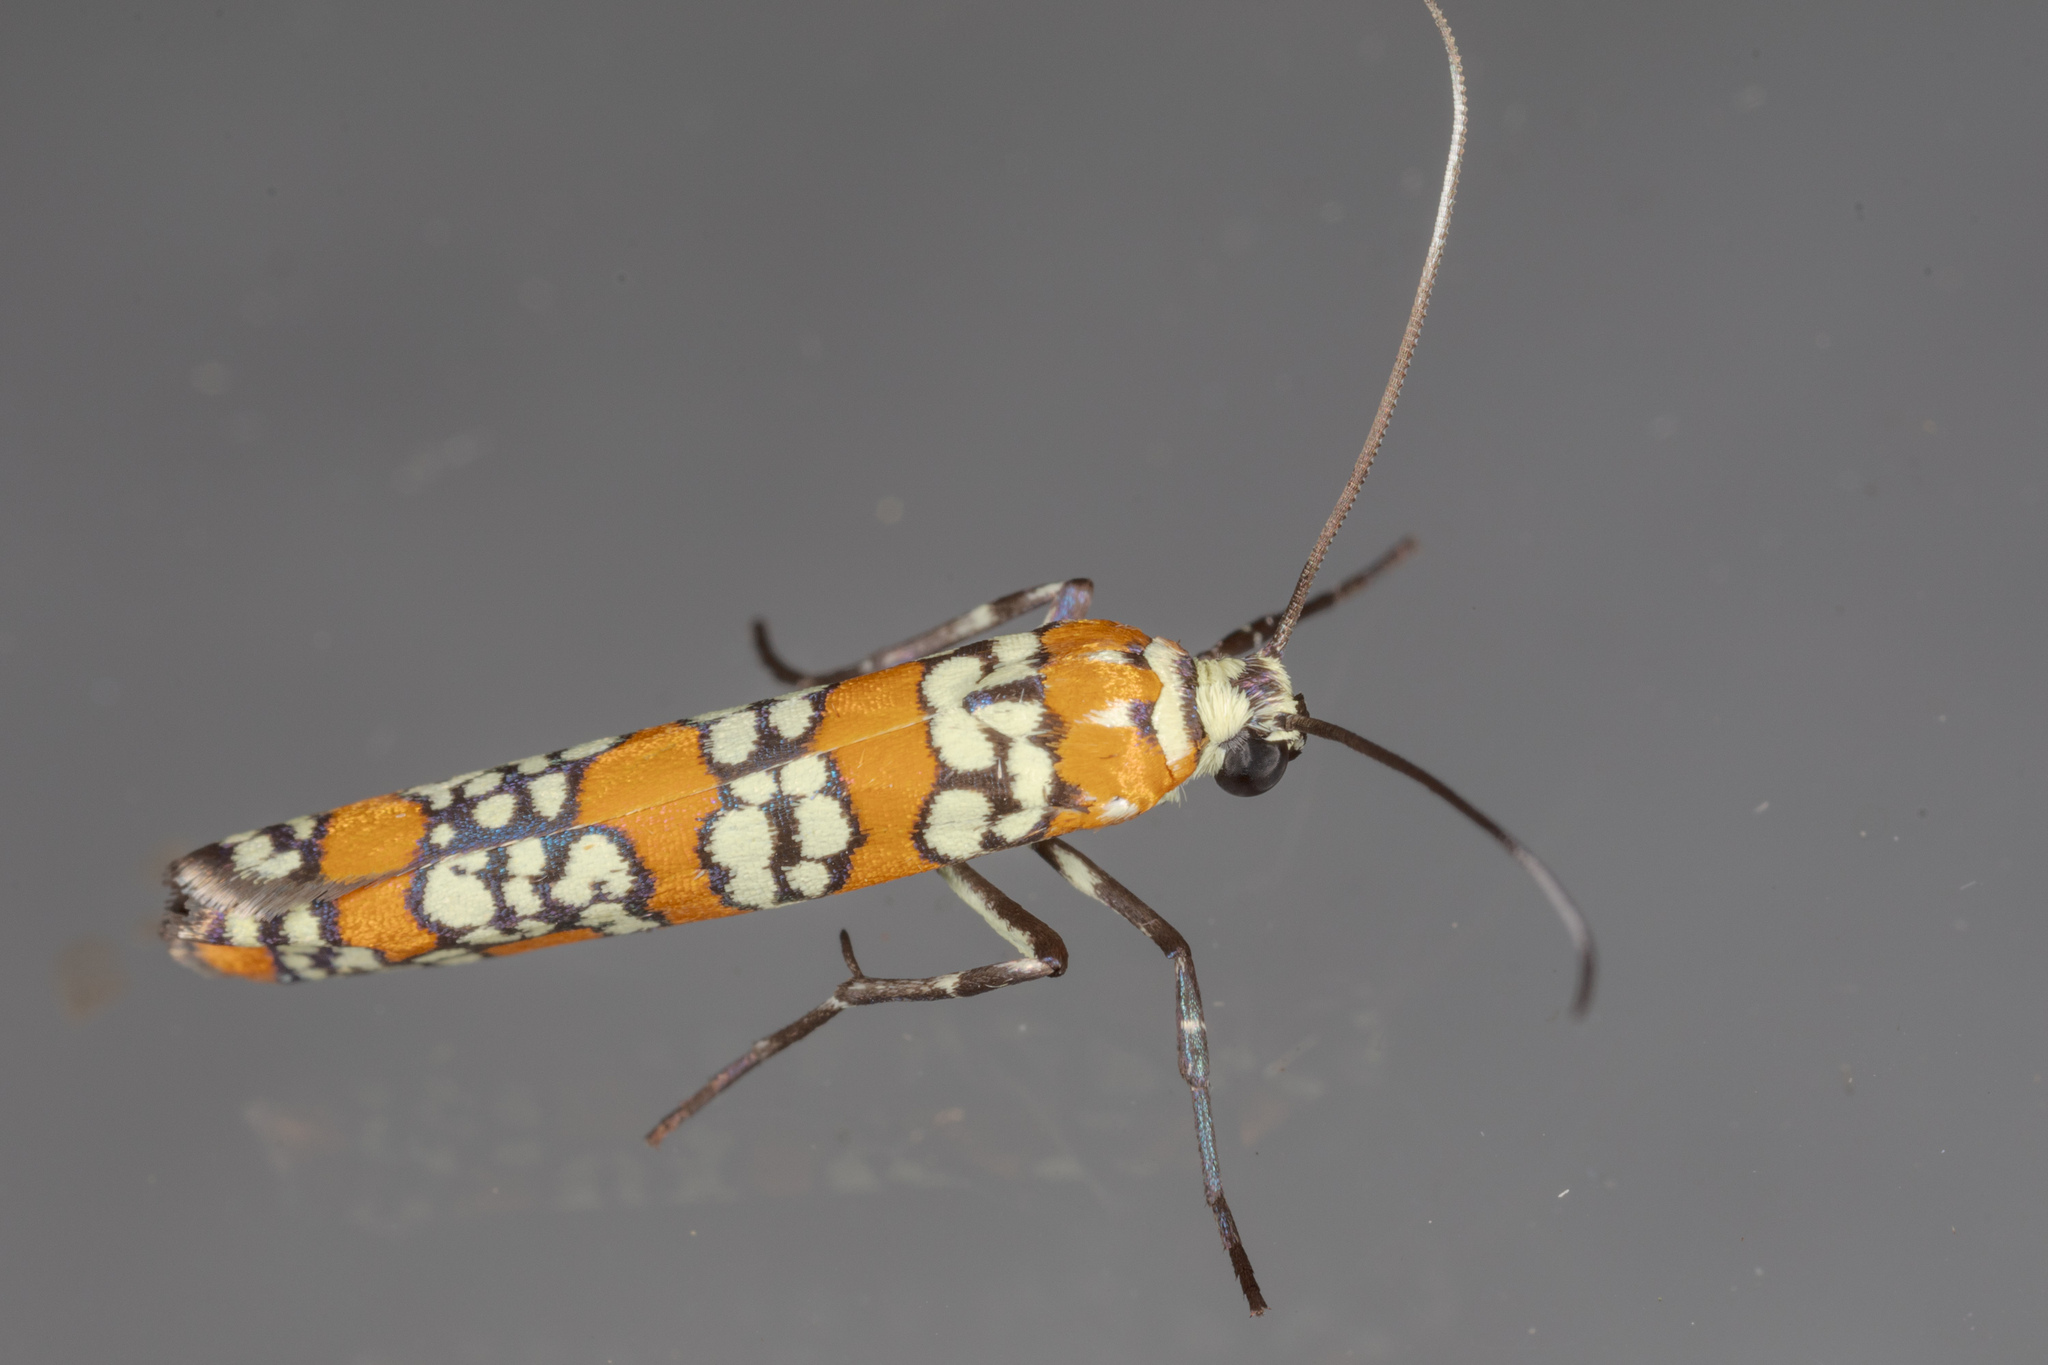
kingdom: Animalia
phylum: Arthropoda
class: Insecta
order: Lepidoptera
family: Attevidae
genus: Atteva
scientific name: Atteva punctella
